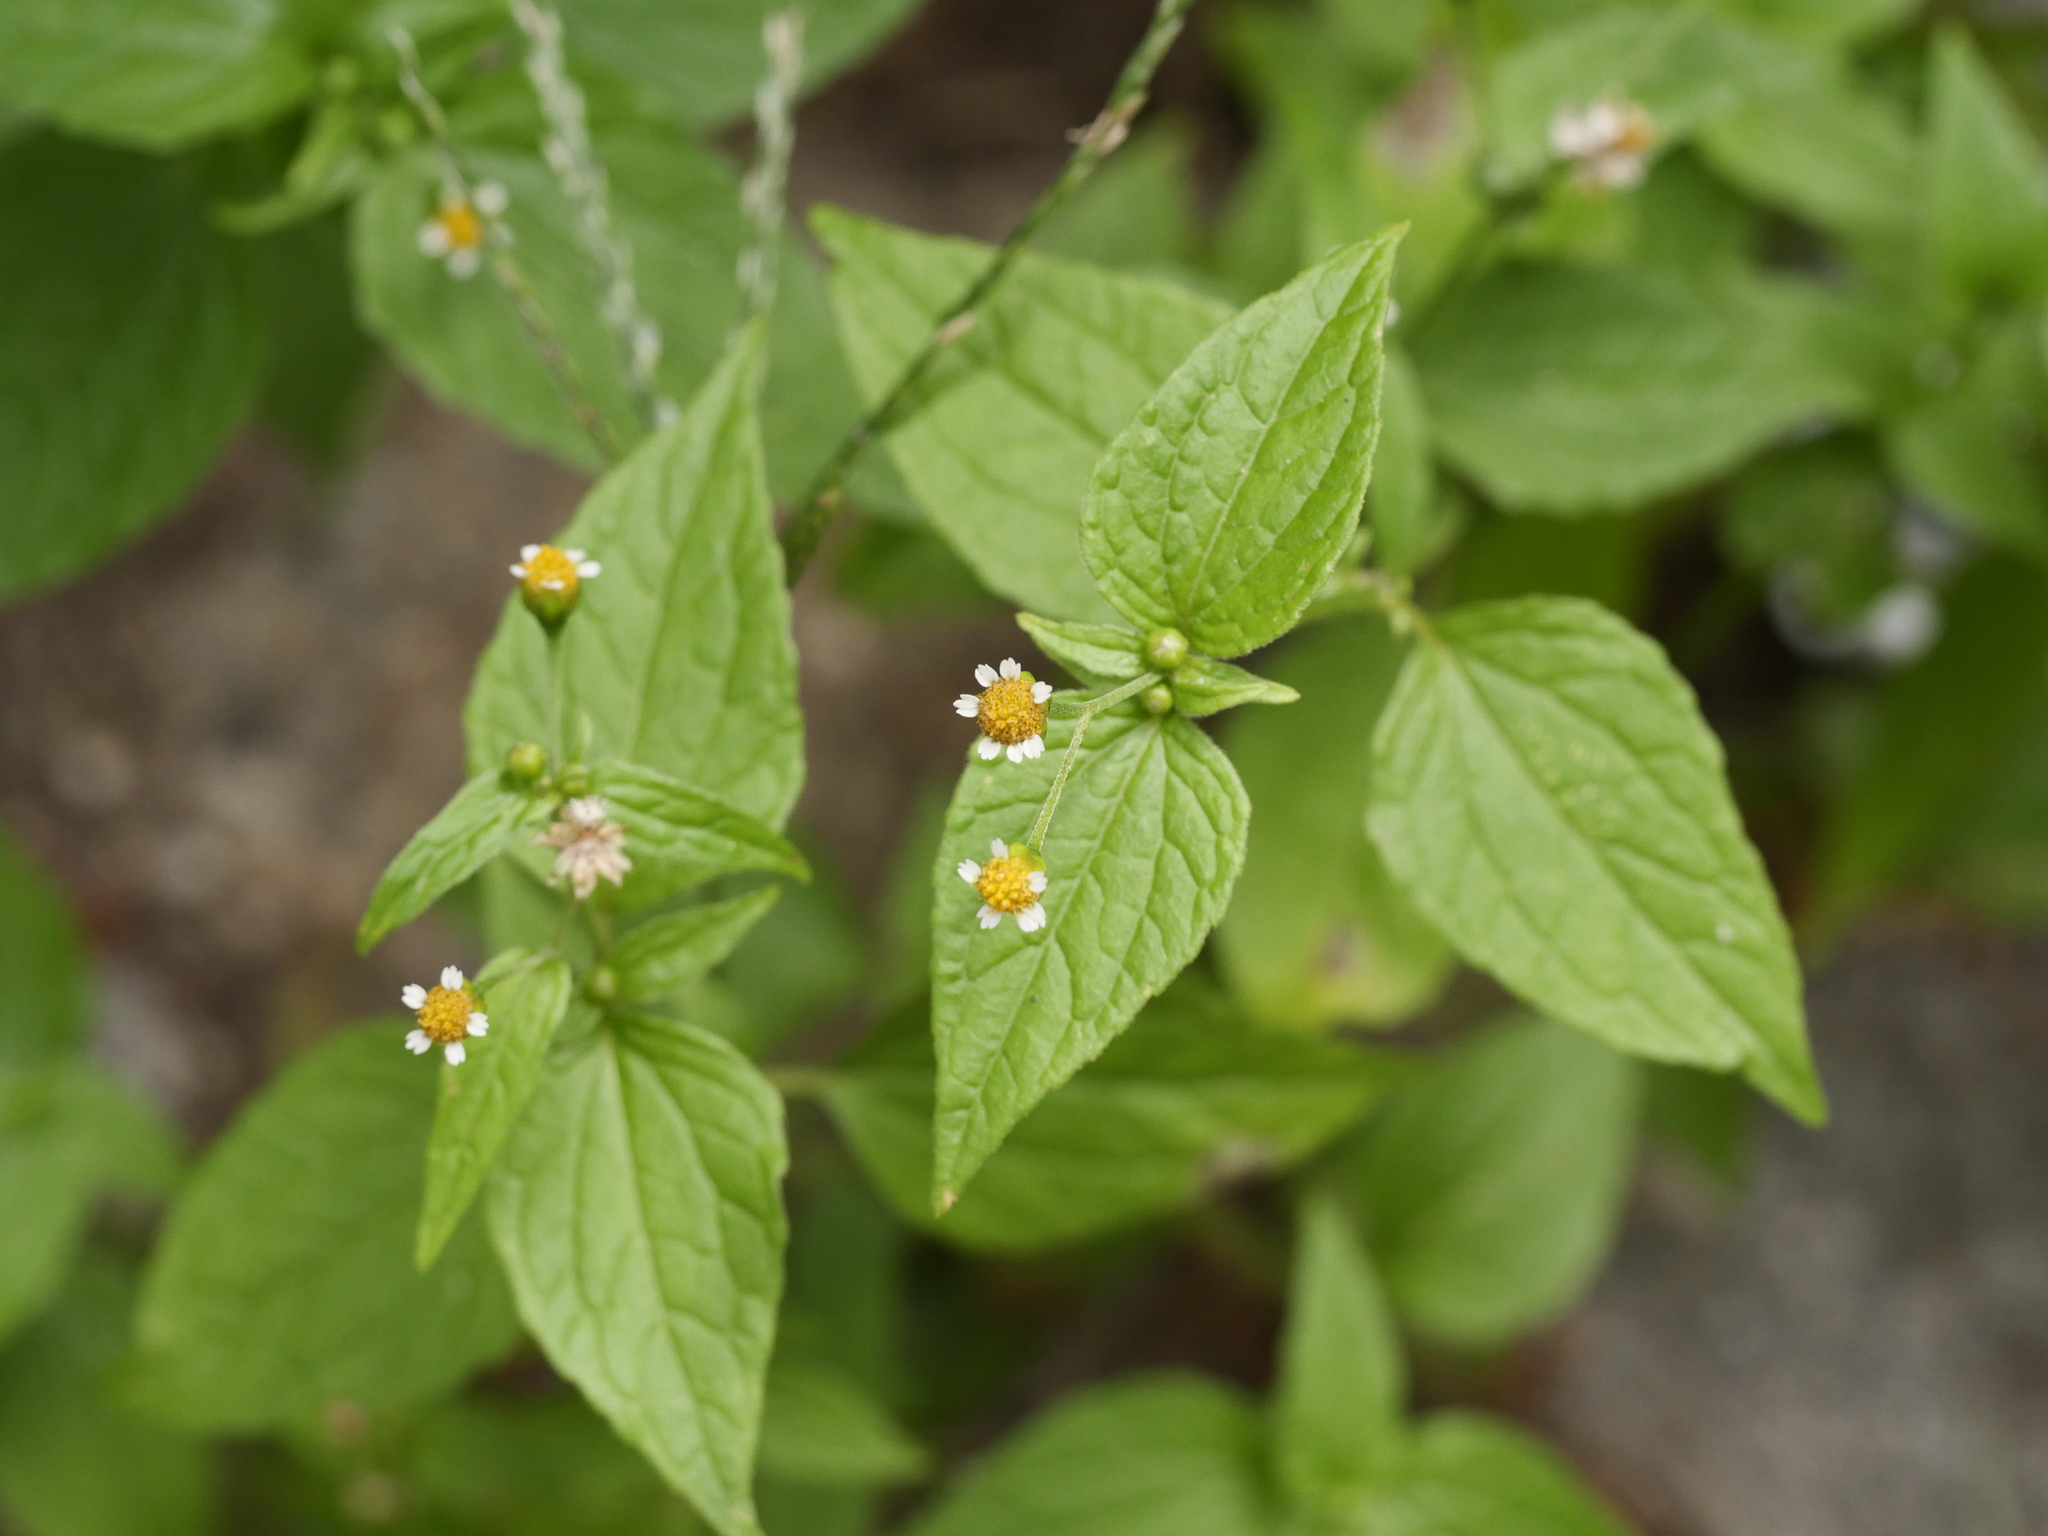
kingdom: Plantae
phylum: Tracheophyta
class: Magnoliopsida
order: Asterales
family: Asteraceae
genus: Galinsoga
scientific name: Galinsoga parviflora
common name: Gallant soldier
